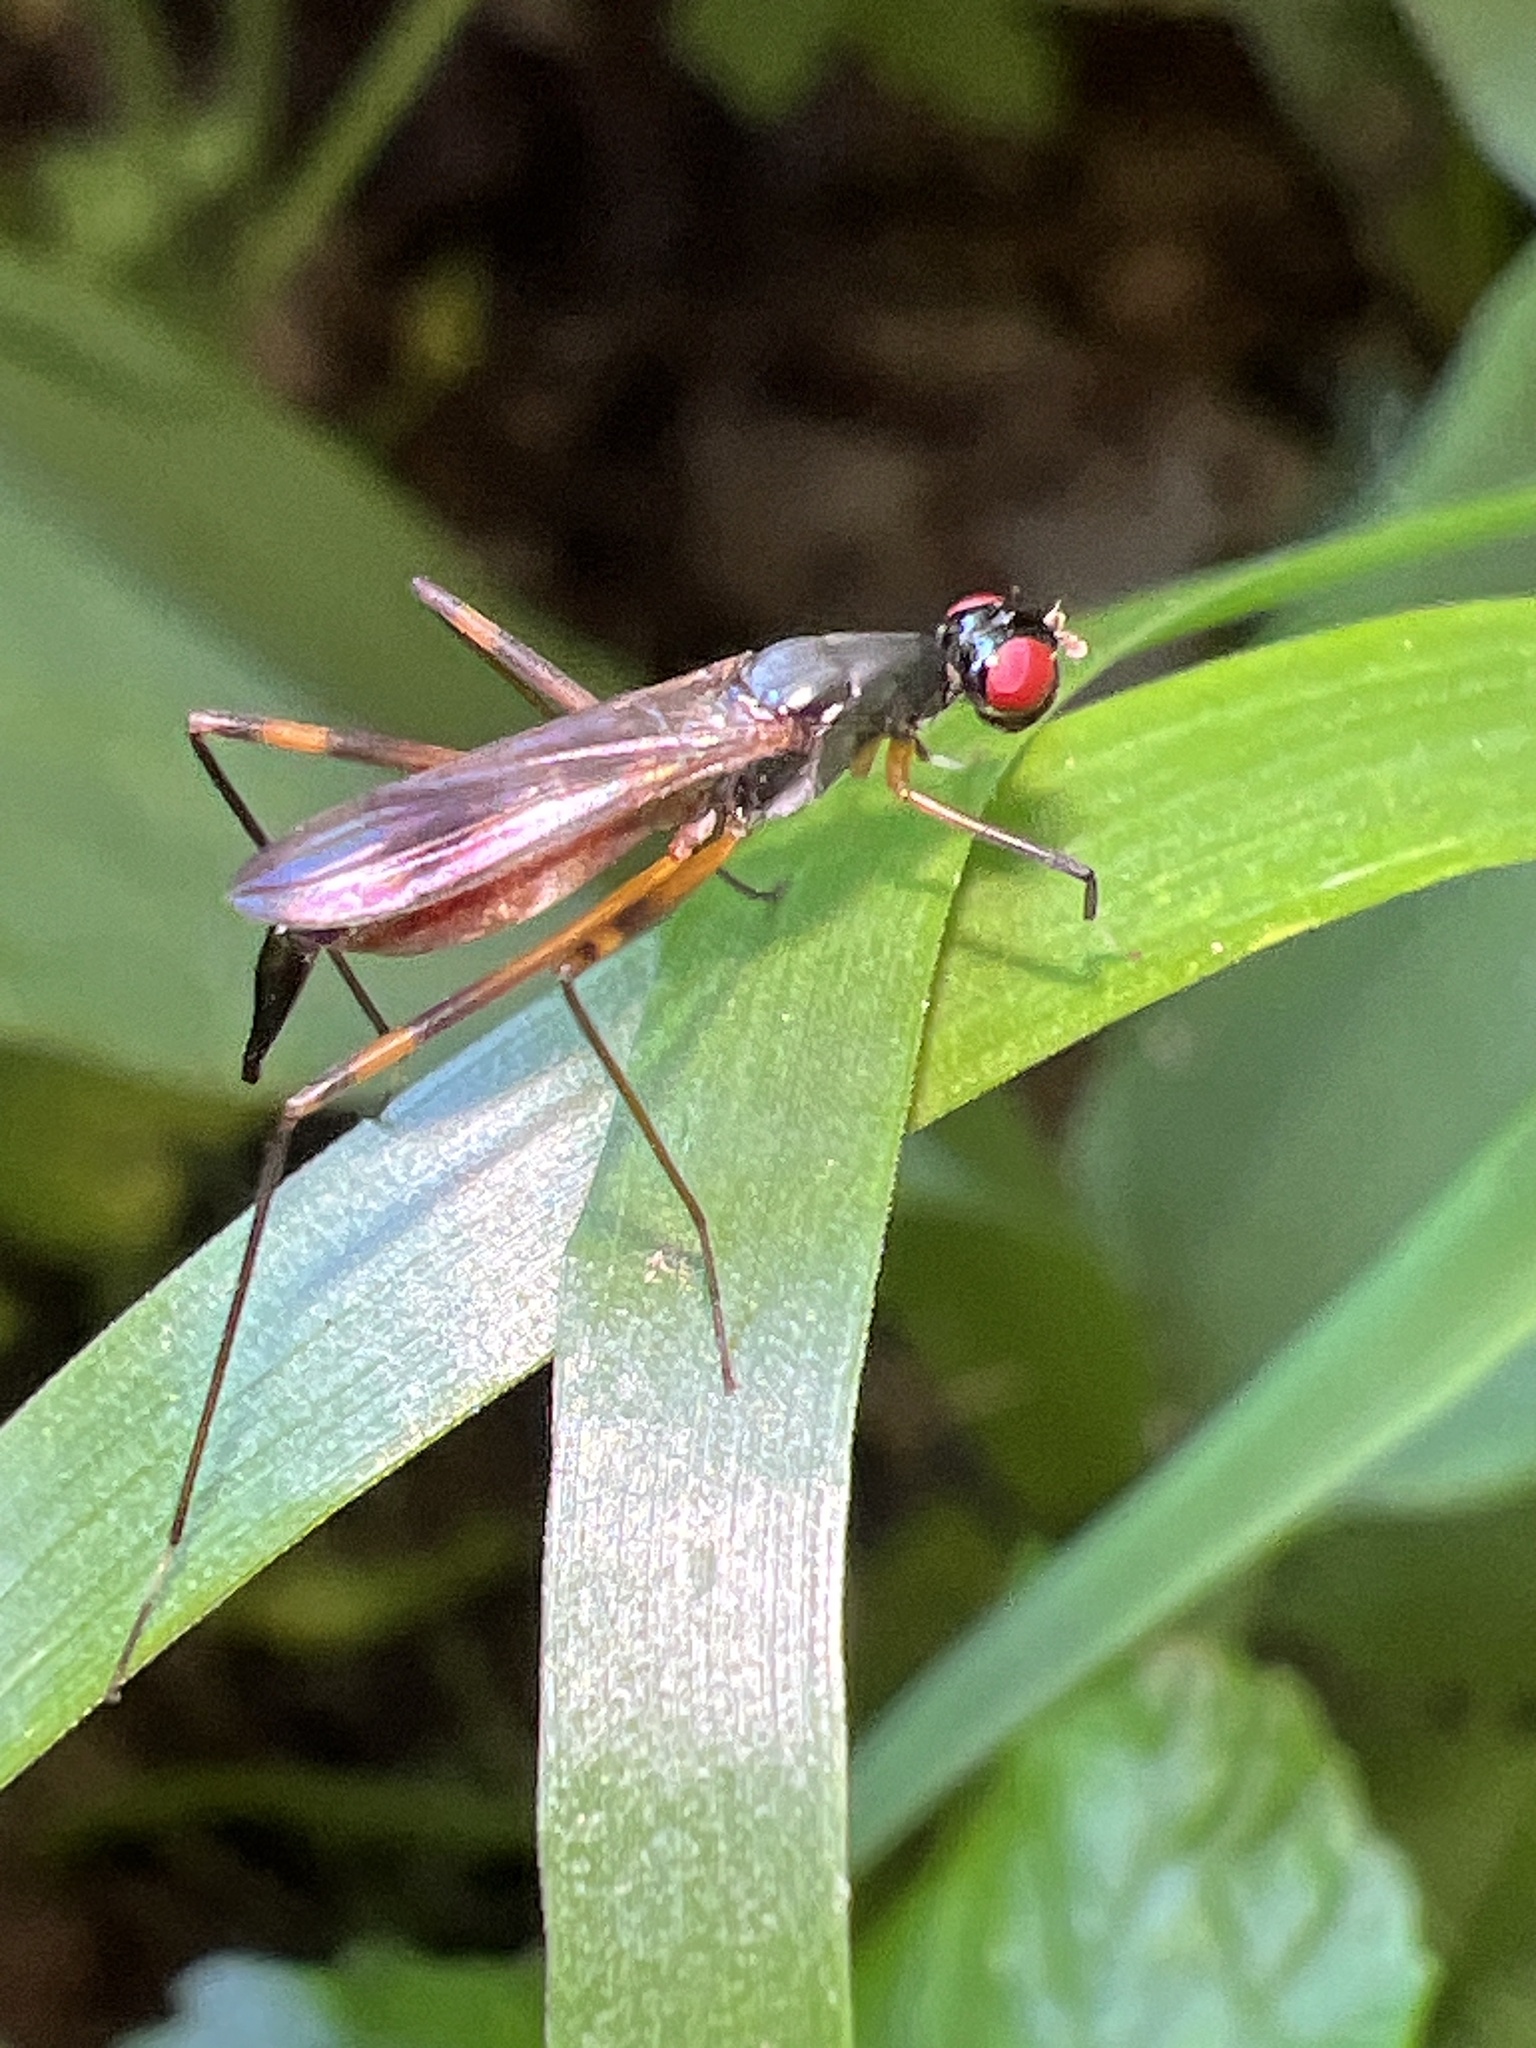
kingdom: Animalia
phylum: Arthropoda
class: Insecta
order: Diptera
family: Micropezidae
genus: Rainieria
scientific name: Rainieria antennaepes
